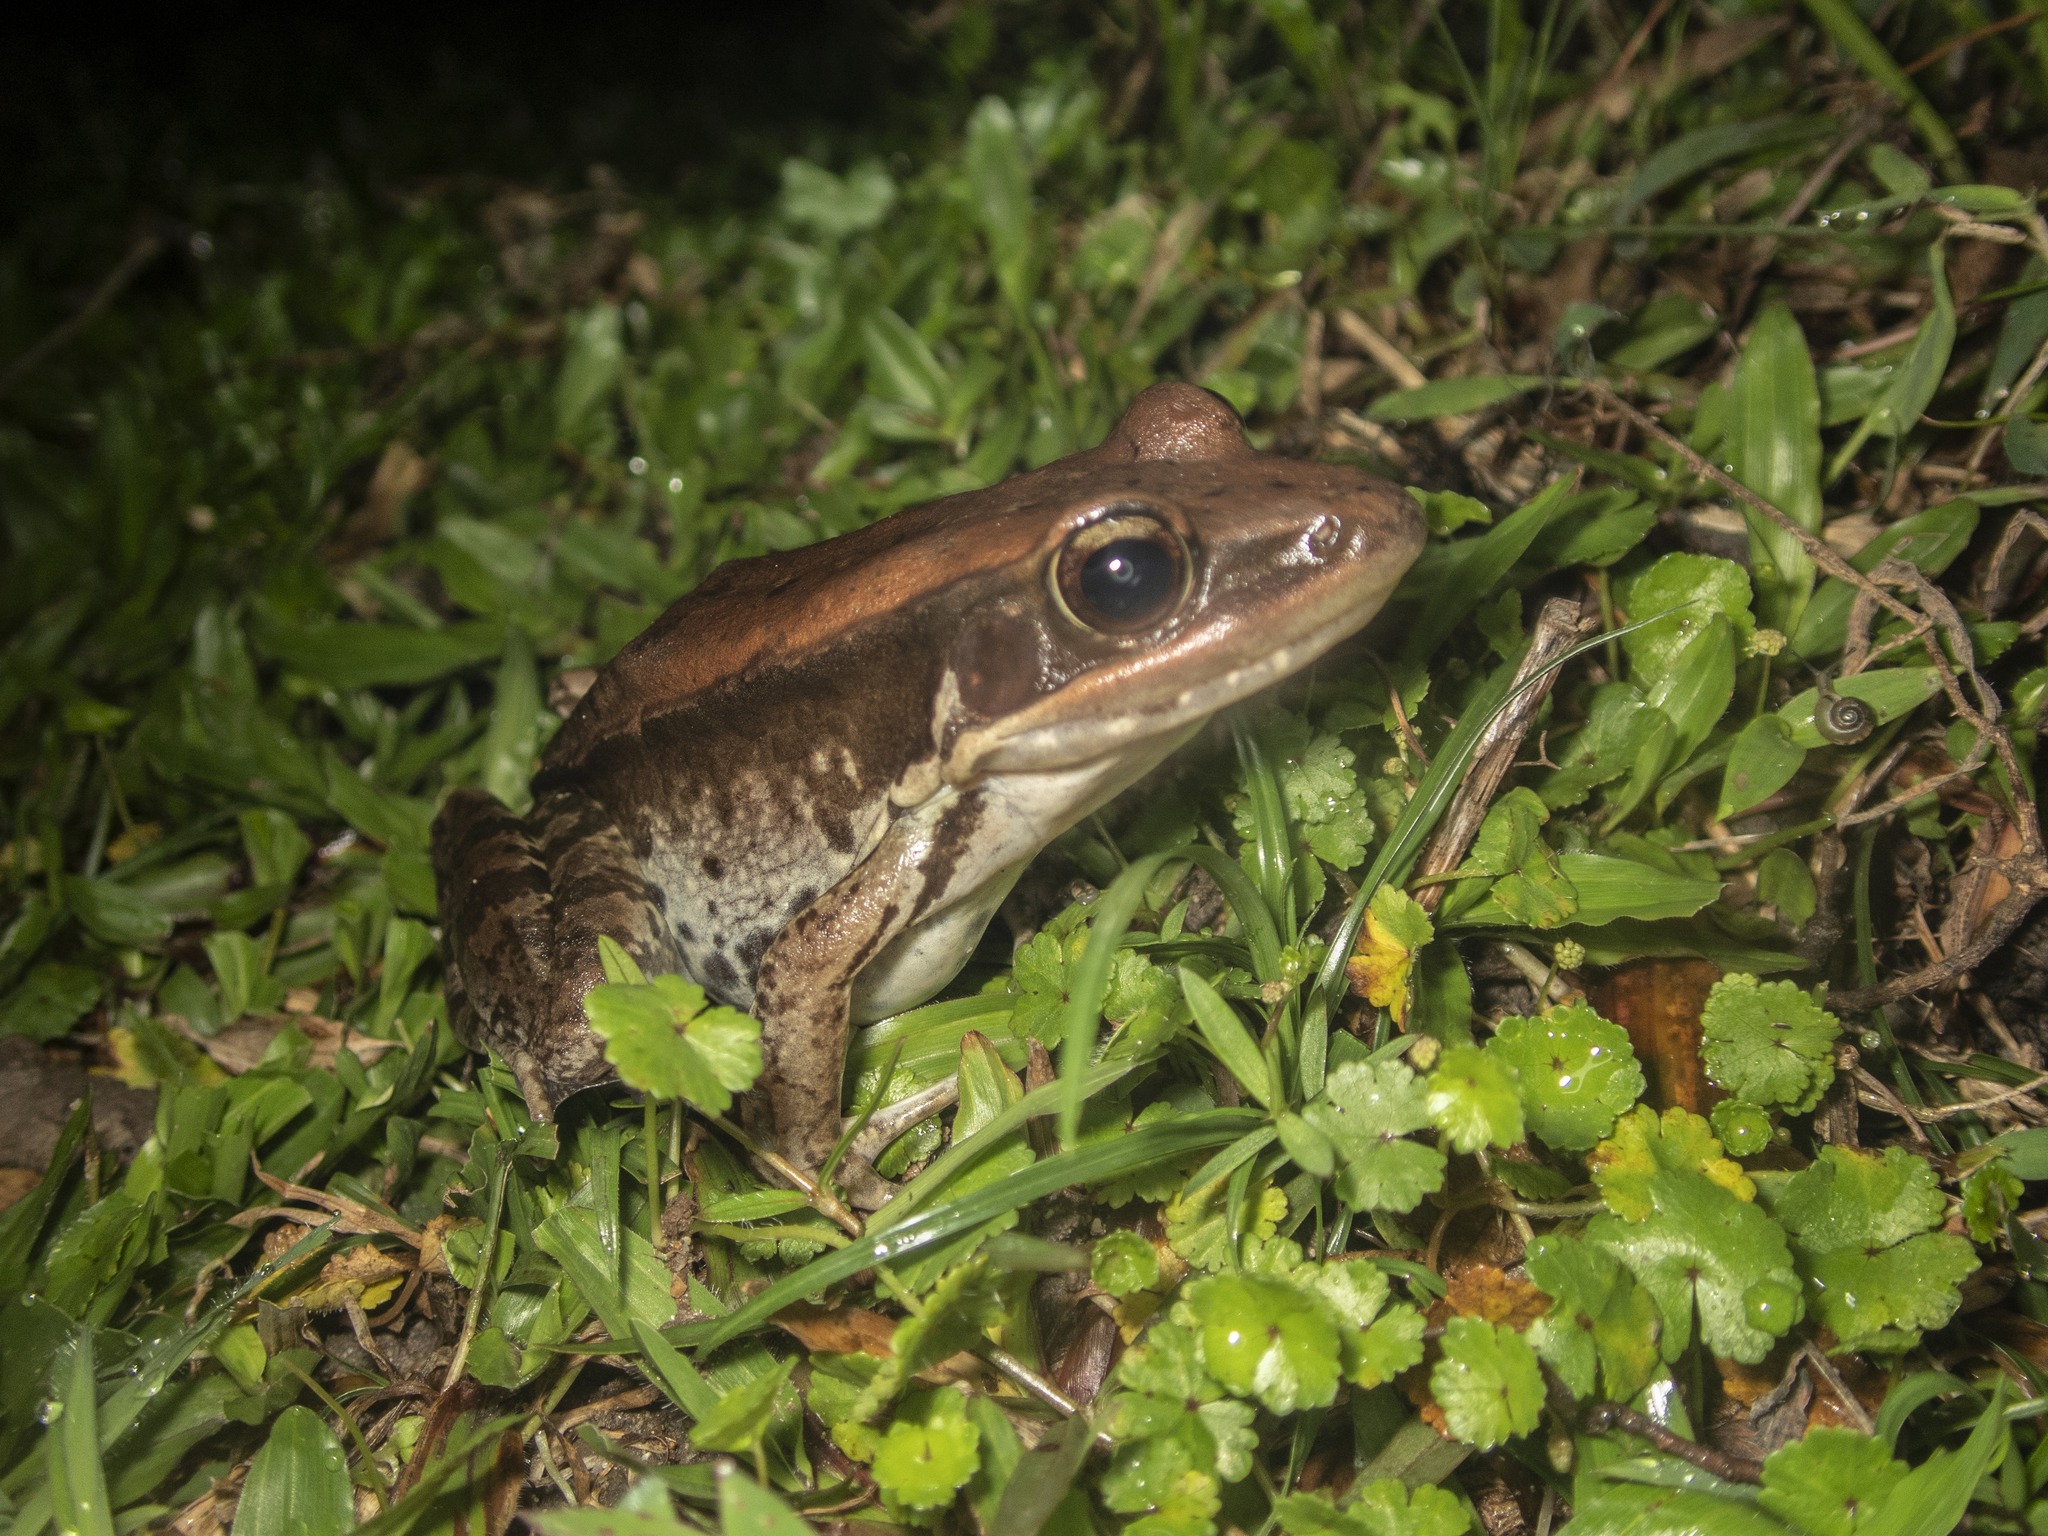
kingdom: Animalia
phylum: Chordata
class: Amphibia
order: Anura
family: Ranidae
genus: Sylvirana
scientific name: Sylvirana guentheri
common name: Guenther's amoy frog
